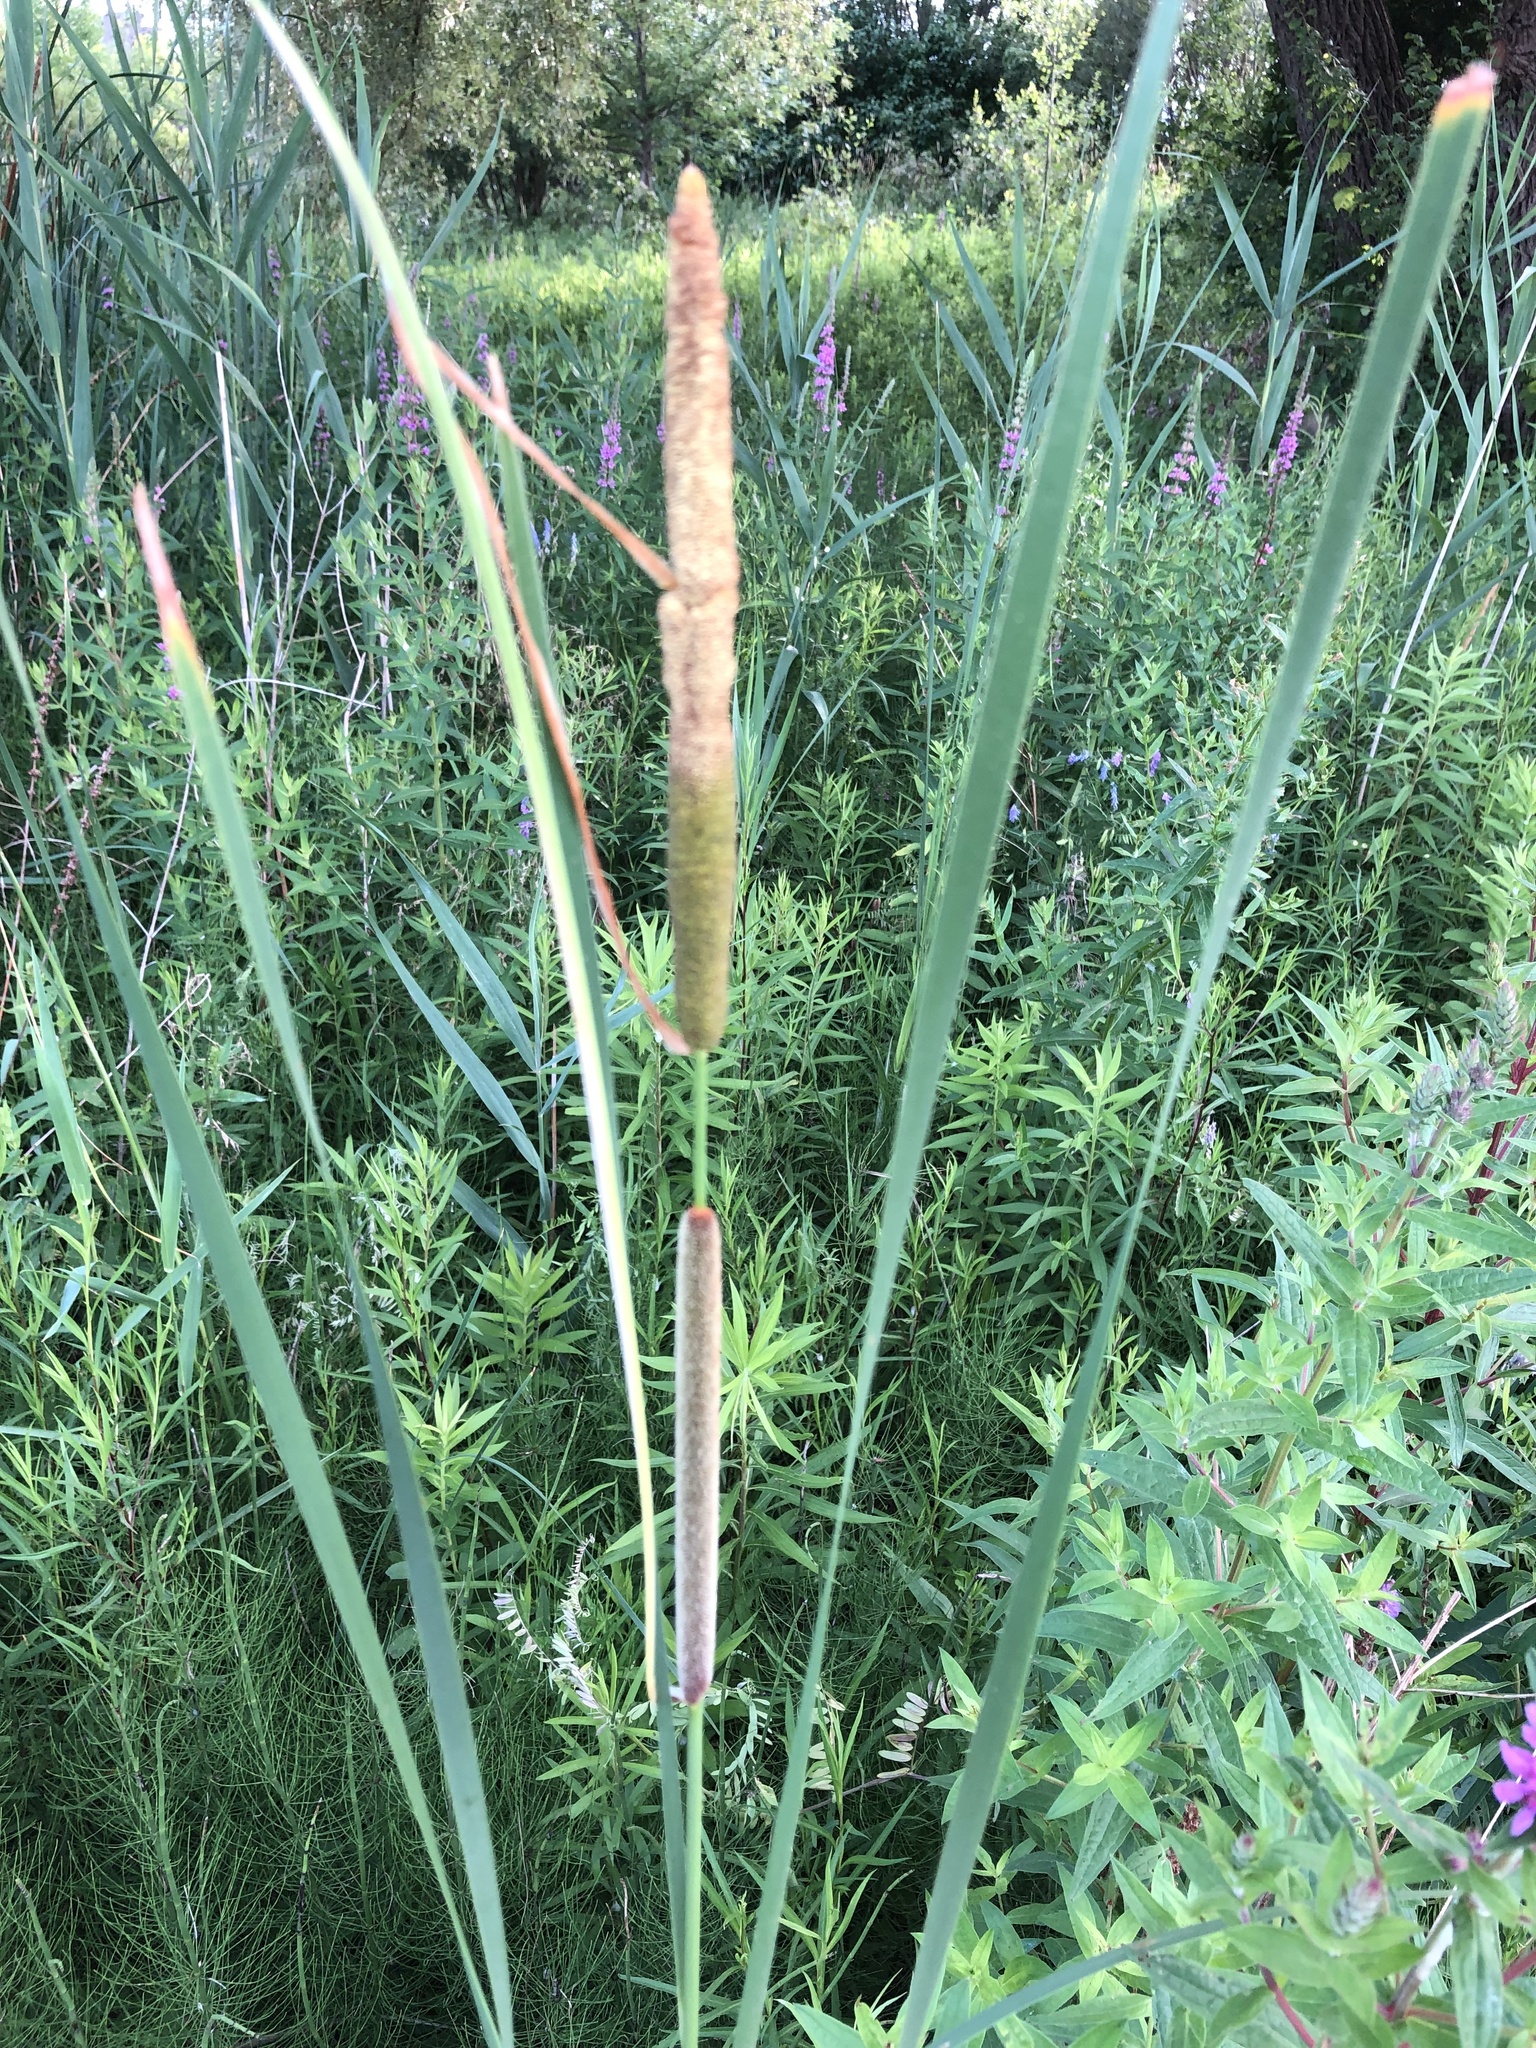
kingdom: Plantae
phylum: Tracheophyta
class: Liliopsida
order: Poales
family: Typhaceae
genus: Typha
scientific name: Typha angustifolia
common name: Lesser bulrush
